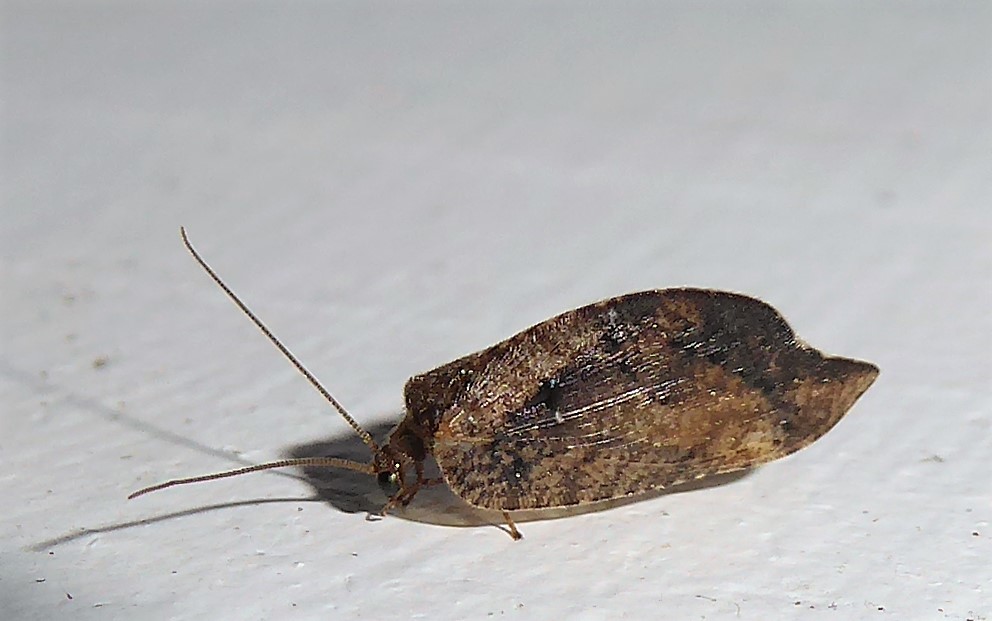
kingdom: Animalia
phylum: Arthropoda
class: Insecta
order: Neuroptera
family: Hemerobiidae
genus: Drepanacra
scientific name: Drepanacra binocula
